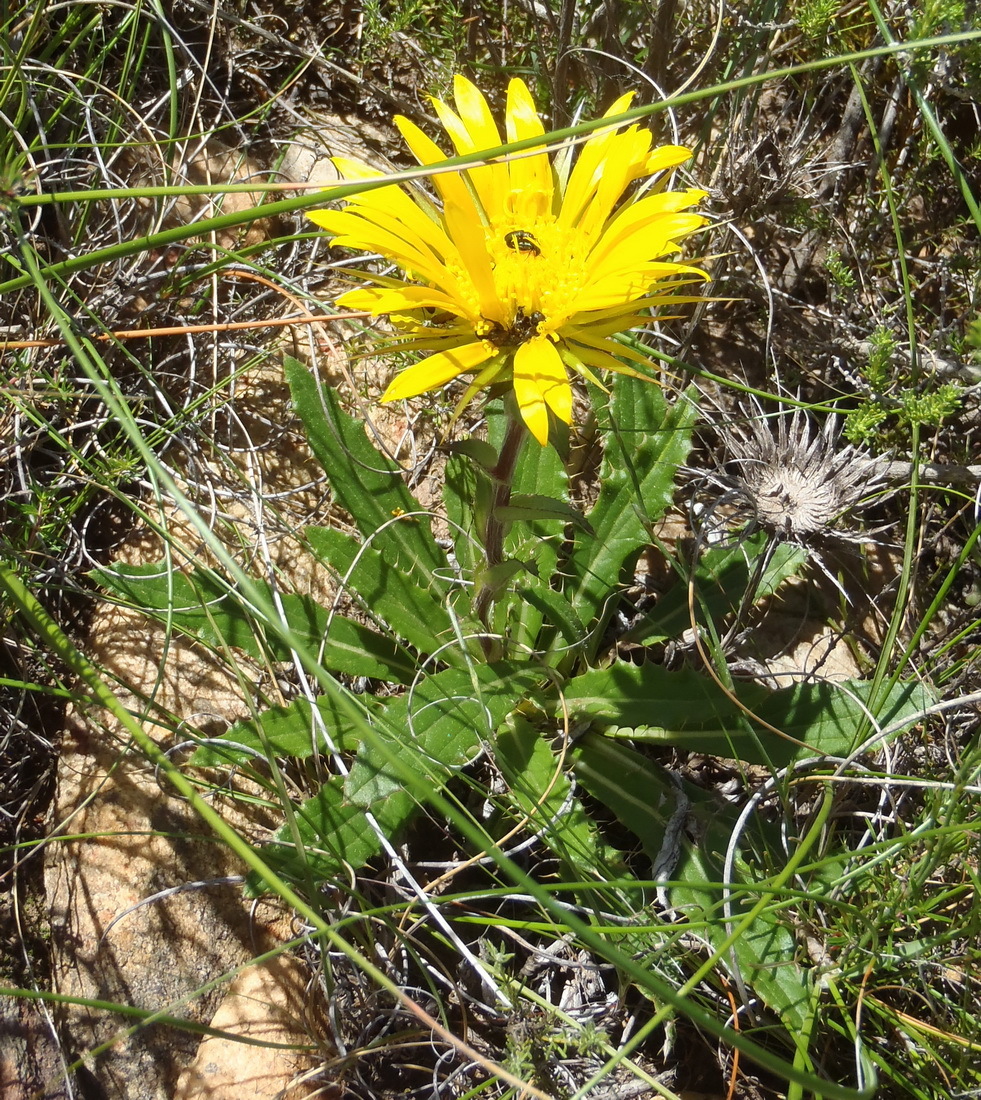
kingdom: Plantae
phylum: Tracheophyta
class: Magnoliopsida
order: Asterales
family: Asteraceae
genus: Berkheya
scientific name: Berkheya armata
